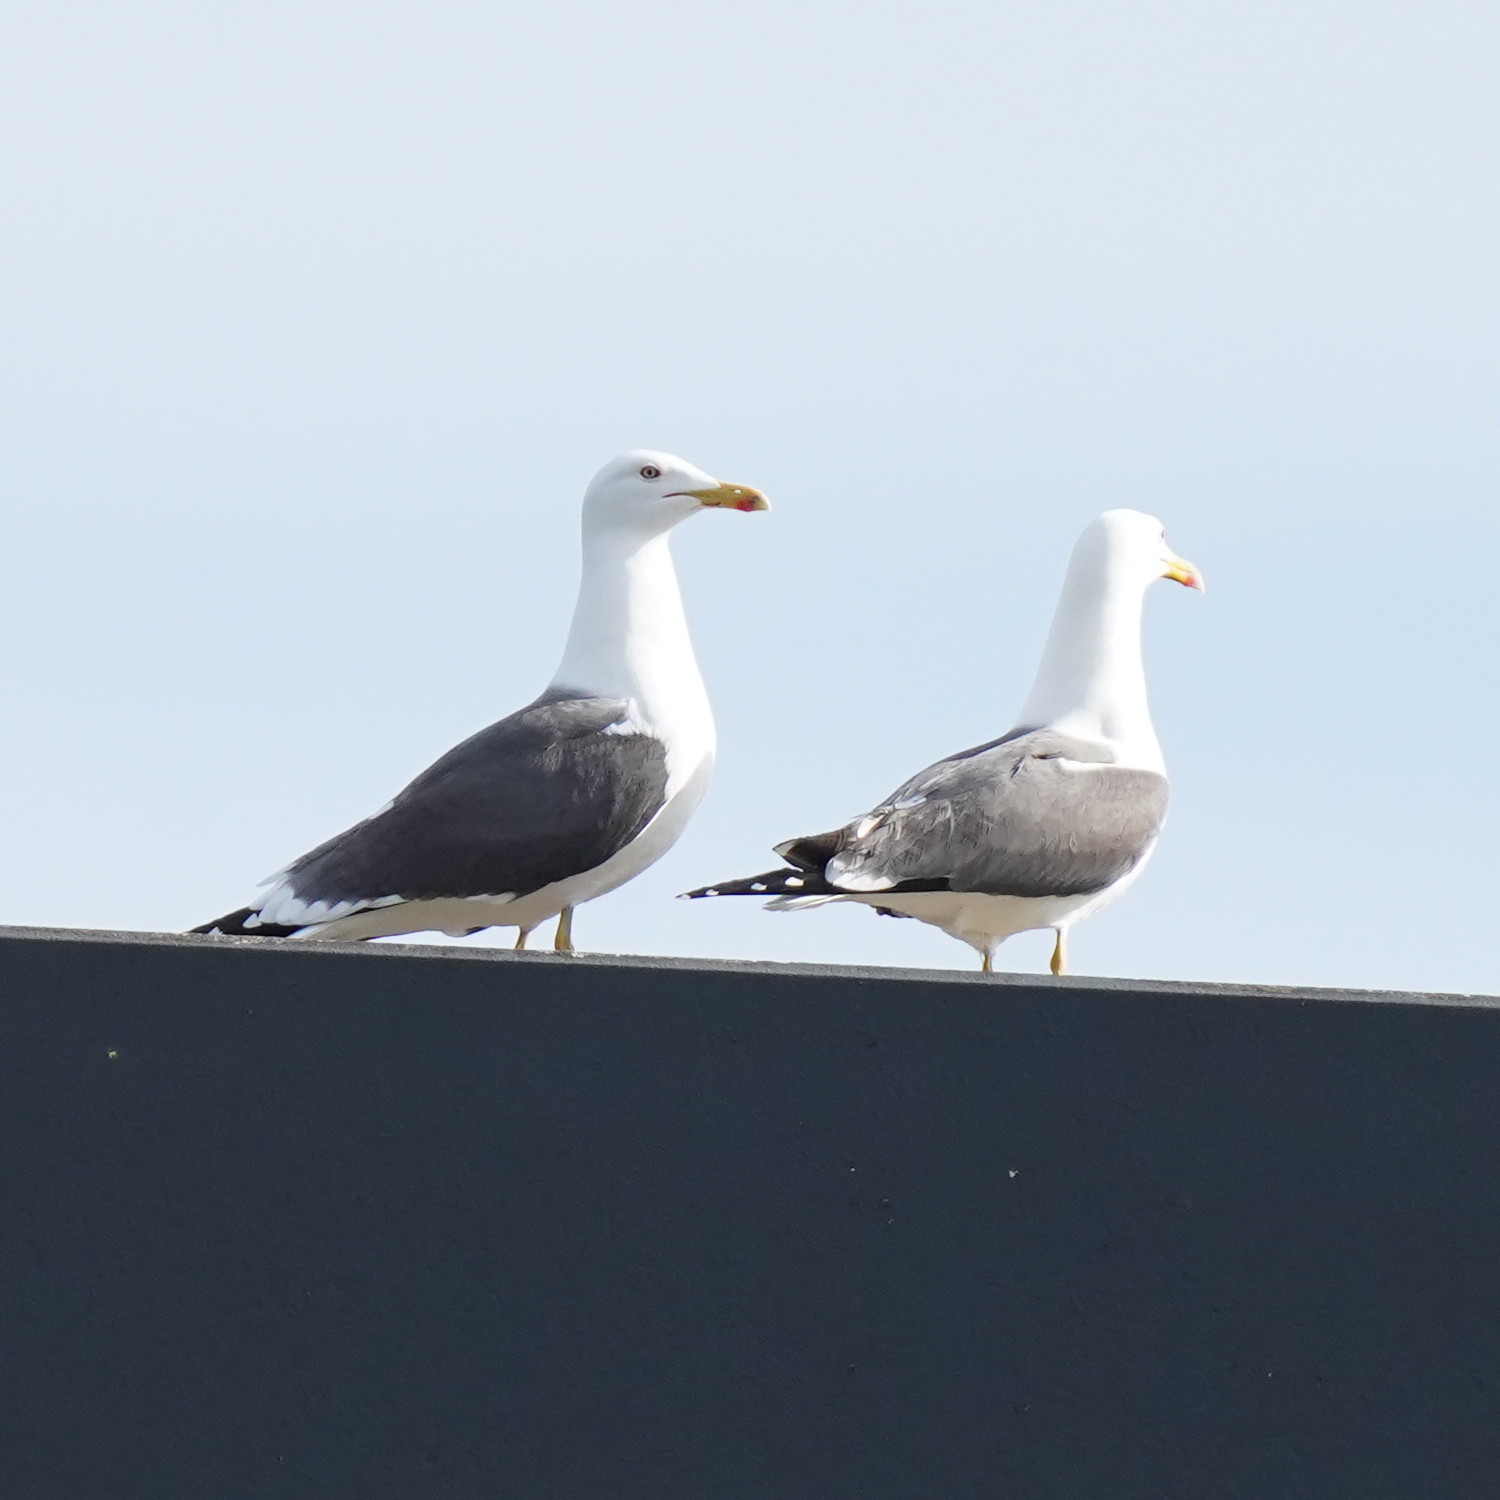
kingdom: Animalia
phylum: Chordata
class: Aves
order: Charadriiformes
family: Laridae
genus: Larus
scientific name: Larus fuscus
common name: Lesser black-backed gull
